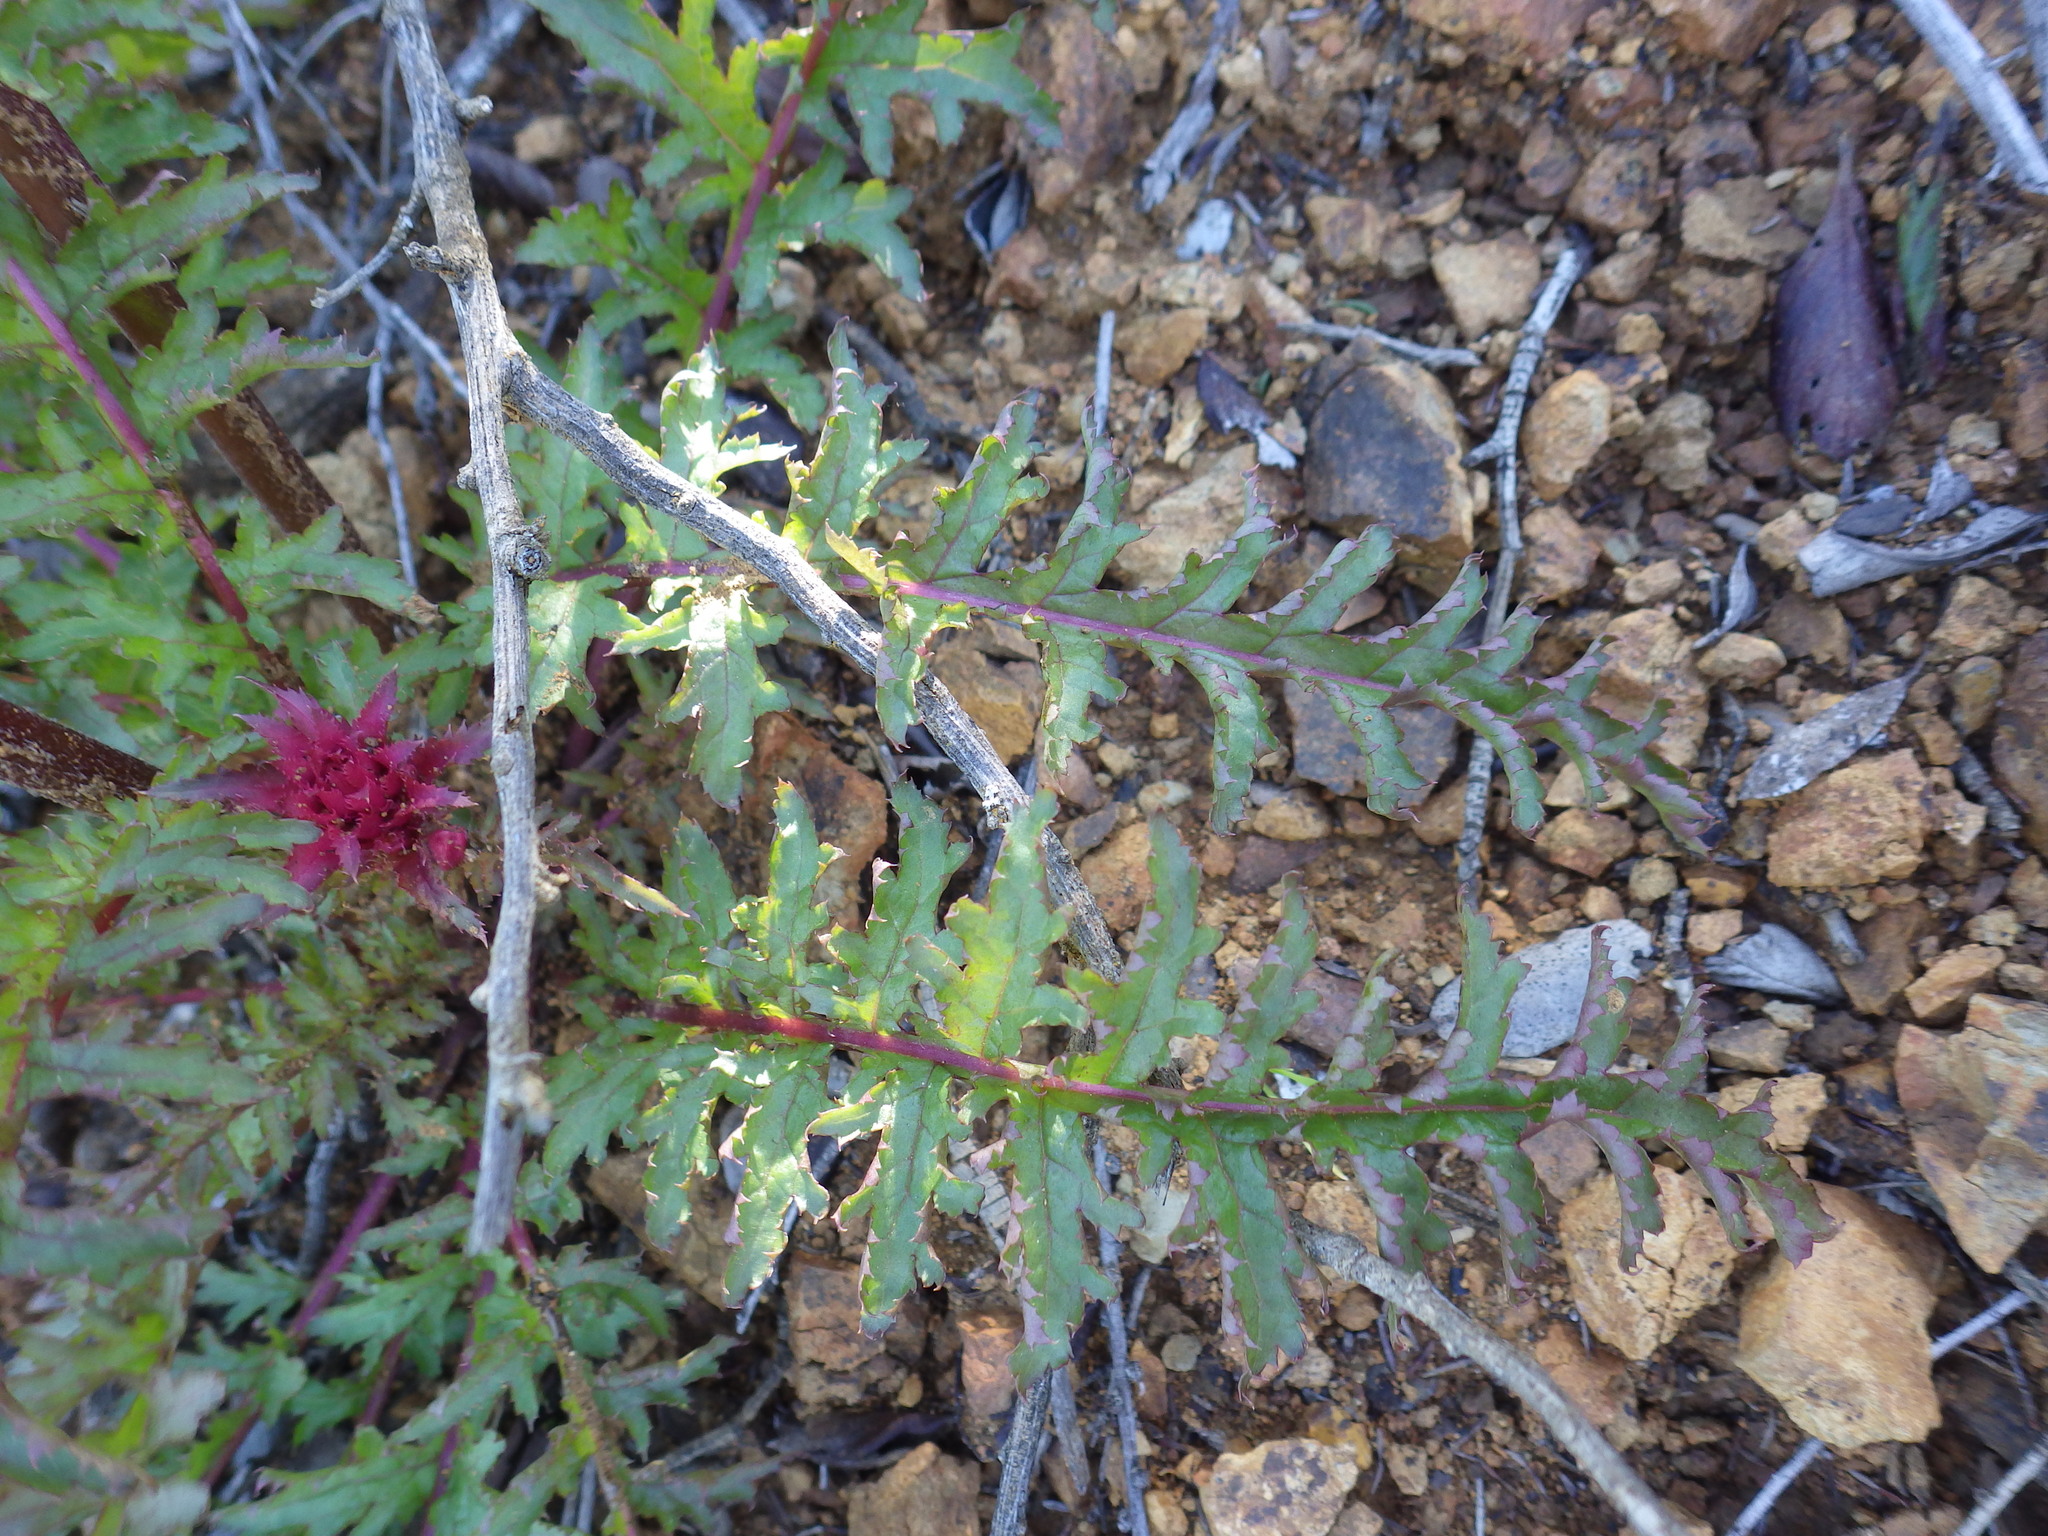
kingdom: Plantae
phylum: Tracheophyta
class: Magnoliopsida
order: Lamiales
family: Orobanchaceae
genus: Pedicularis
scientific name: Pedicularis densiflora
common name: Indian warrior
